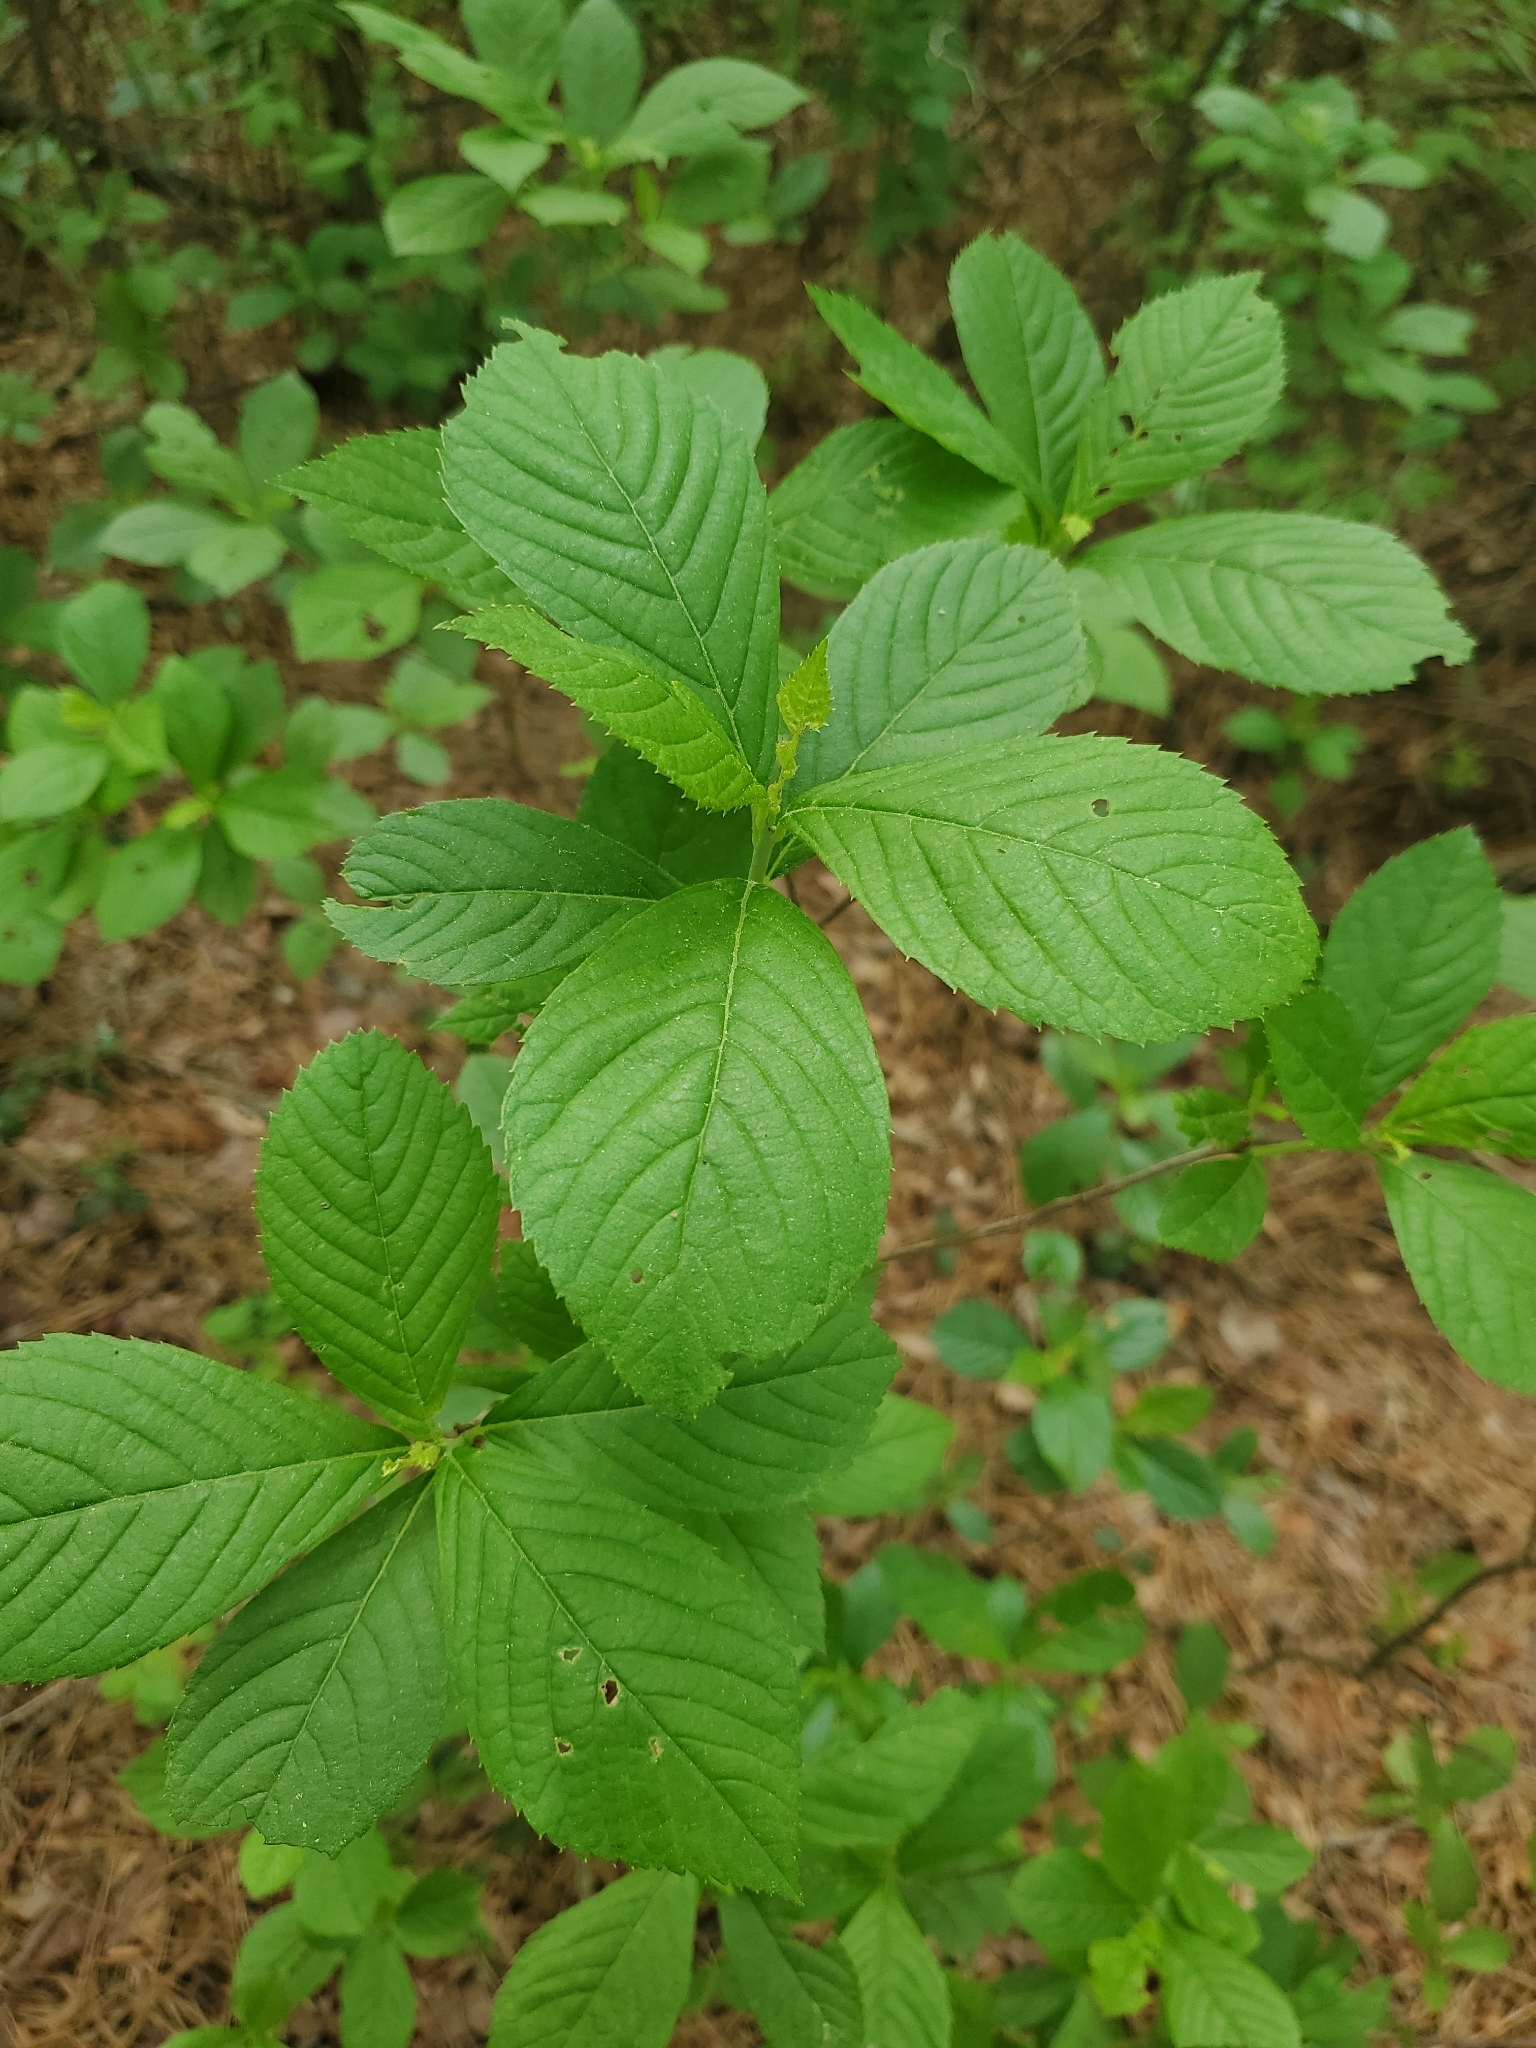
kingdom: Plantae
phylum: Tracheophyta
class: Magnoliopsida
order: Ericales
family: Clethraceae
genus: Clethra
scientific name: Clethra alnifolia
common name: Sweet pepperbush
